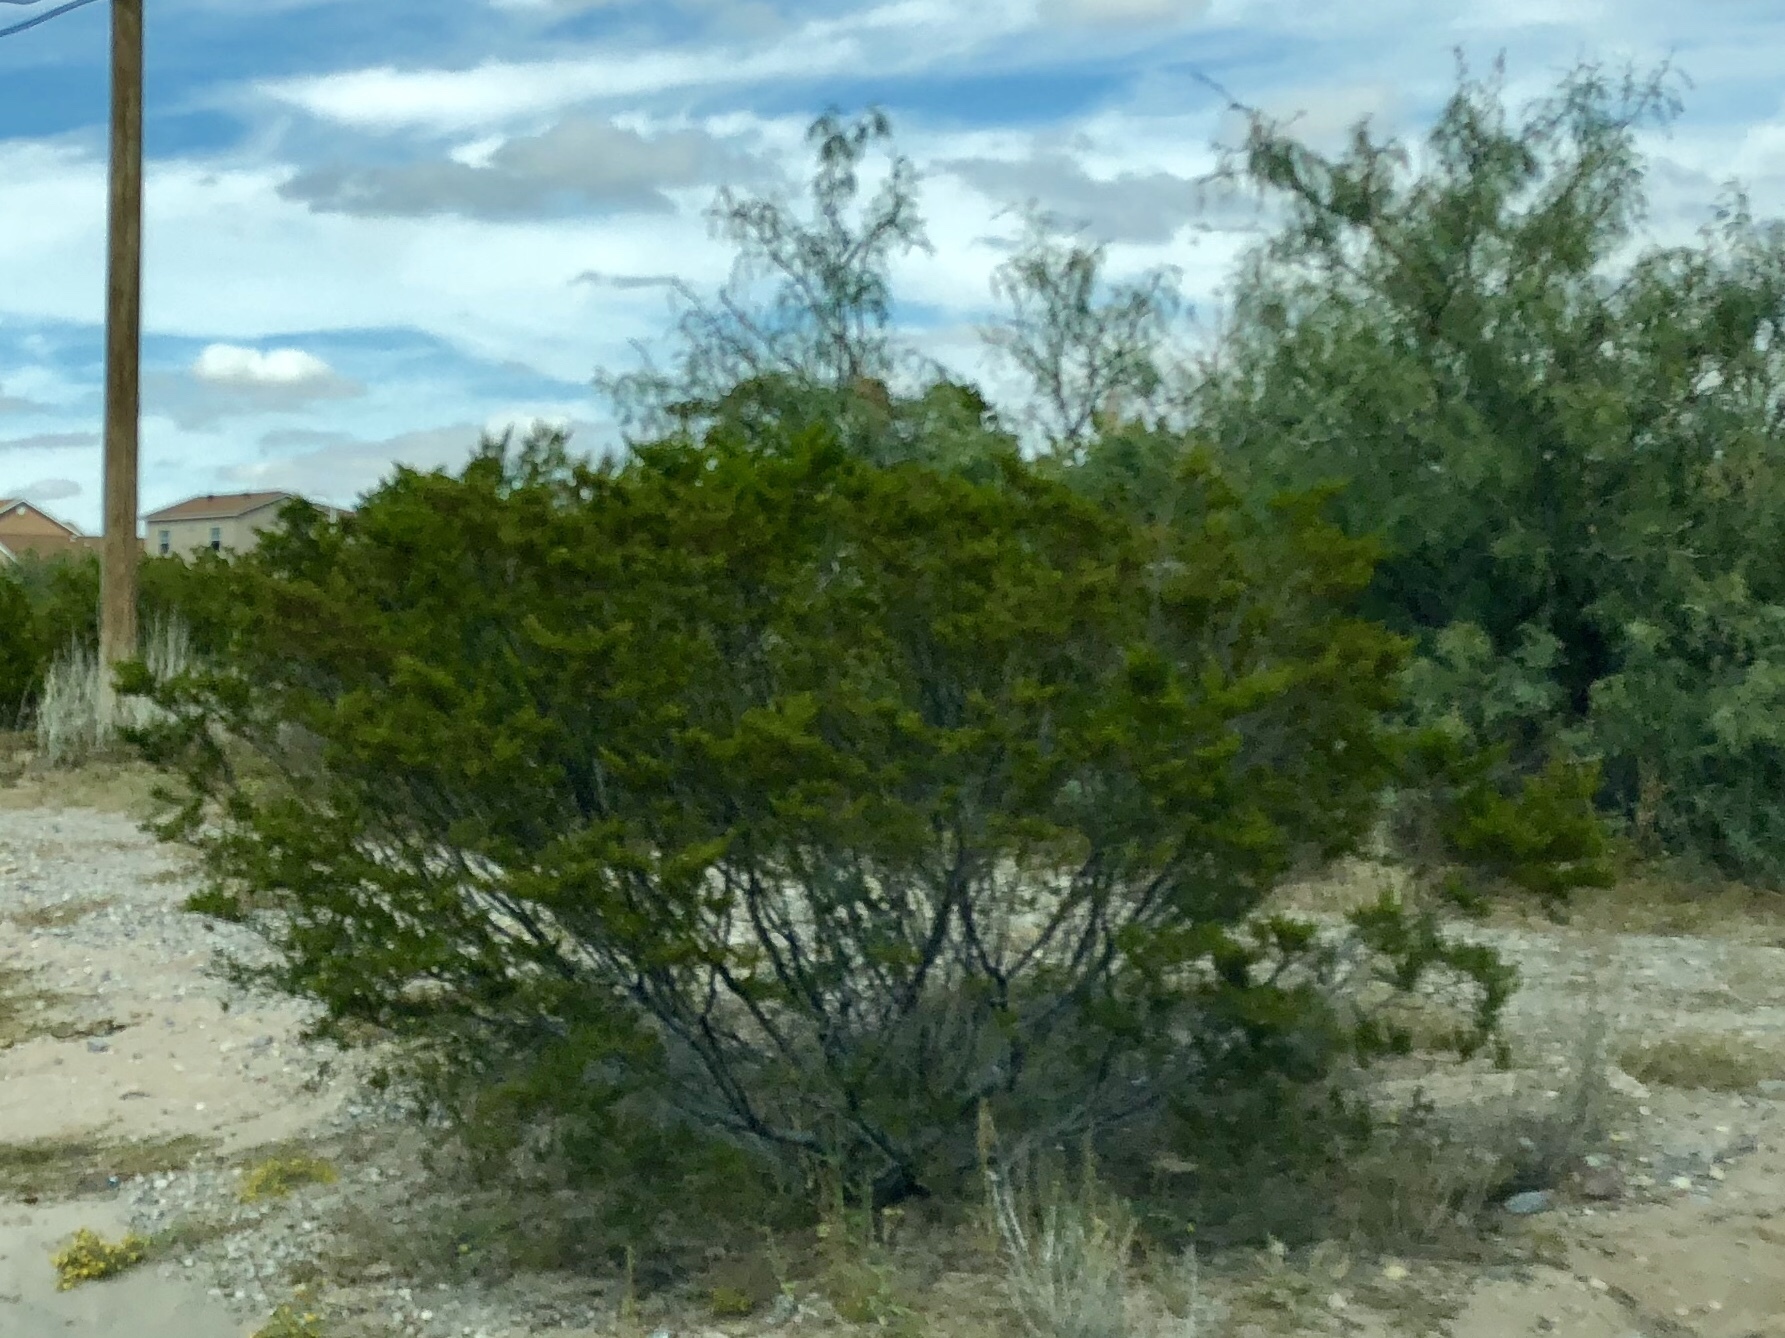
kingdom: Plantae
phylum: Tracheophyta
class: Magnoliopsida
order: Zygophyllales
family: Zygophyllaceae
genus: Larrea
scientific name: Larrea tridentata
